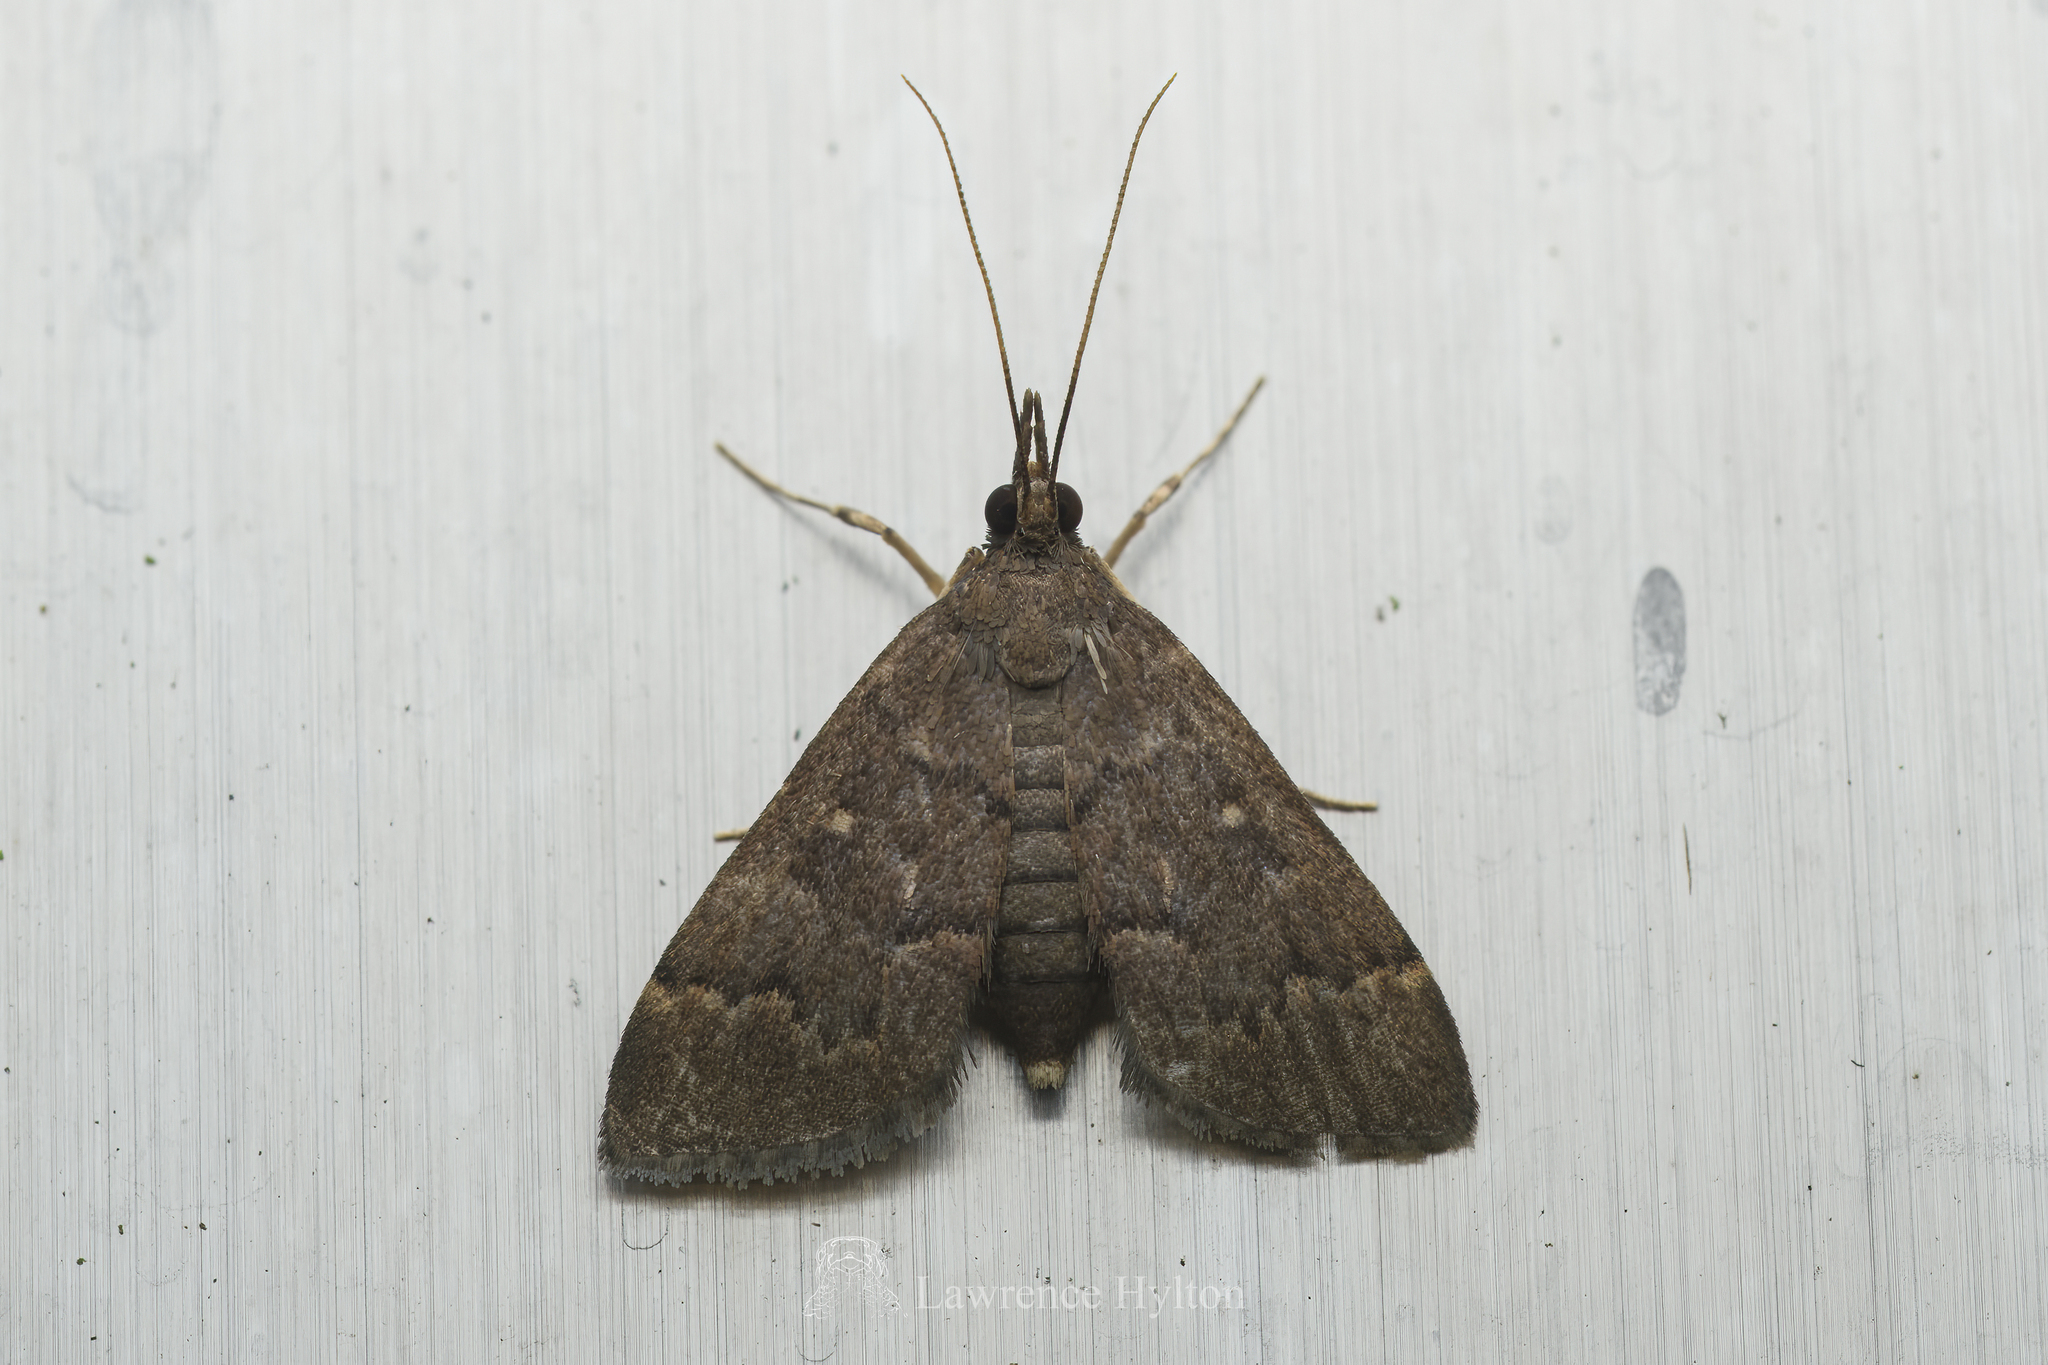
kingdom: Animalia
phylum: Arthropoda
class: Insecta
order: Lepidoptera
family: Crambidae
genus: Camptomastix
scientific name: Camptomastix hisbonalis
